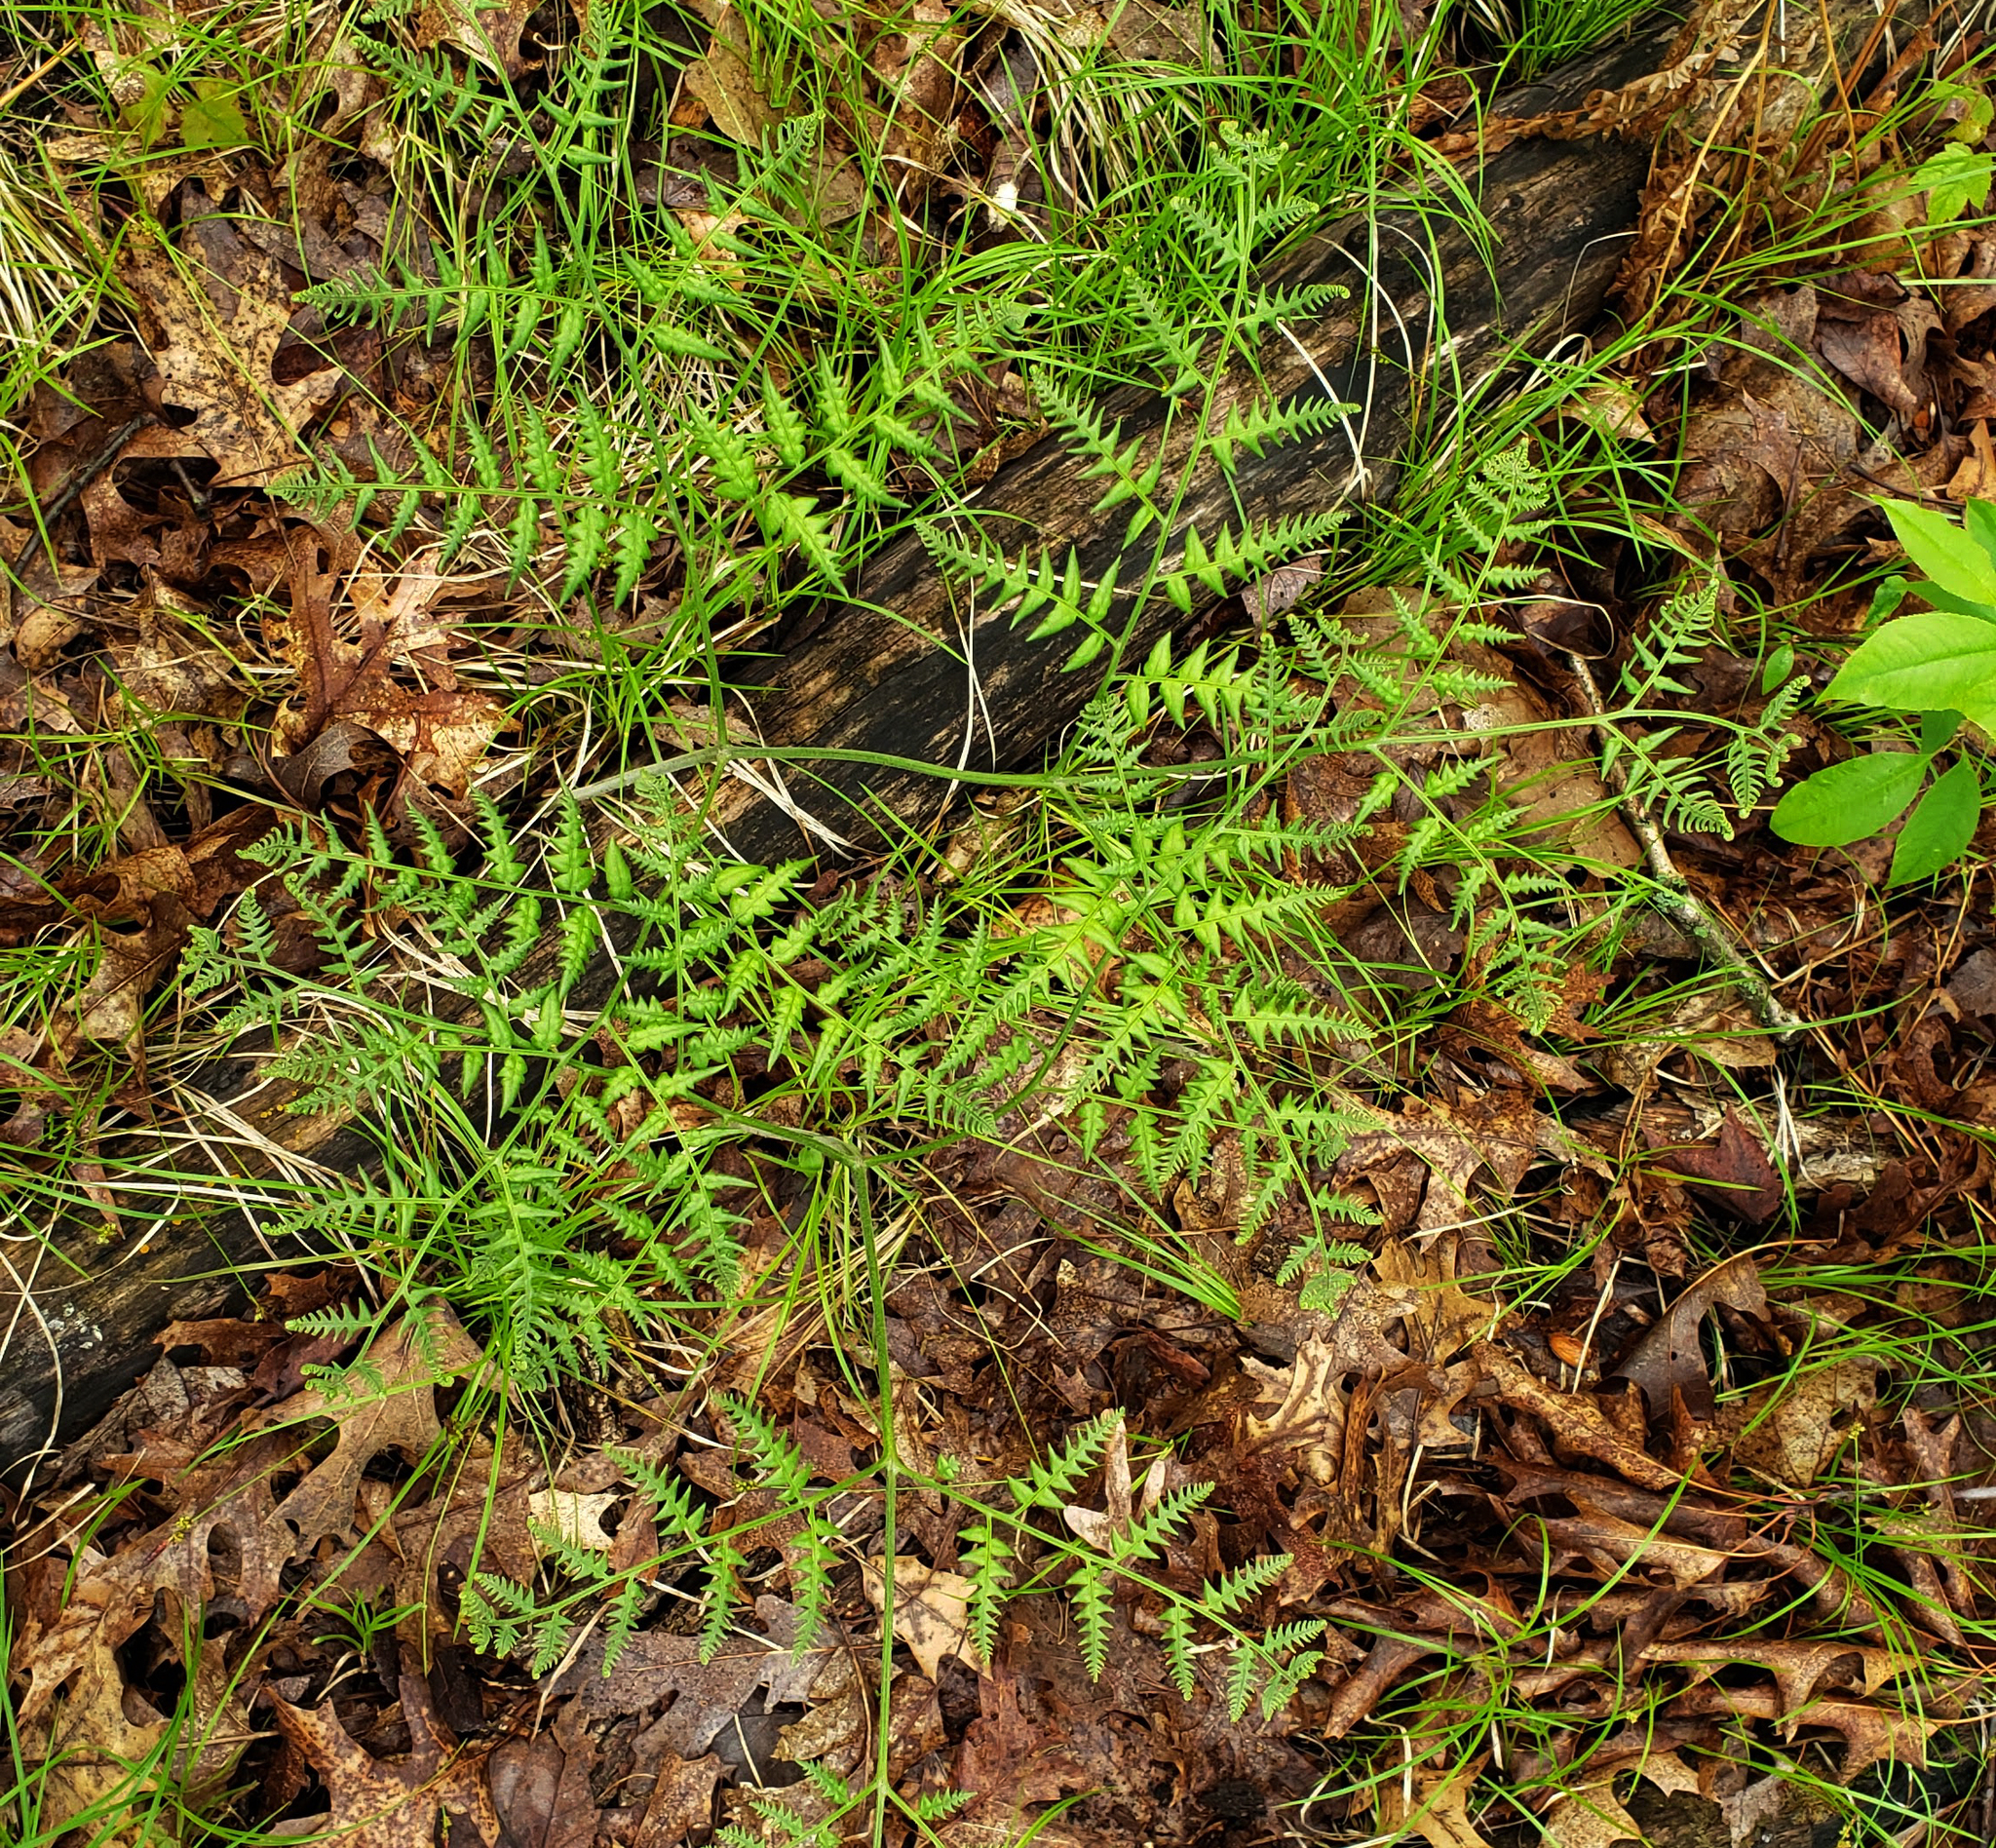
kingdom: Plantae
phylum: Tracheophyta
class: Polypodiopsida
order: Polypodiales
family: Dennstaedtiaceae
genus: Pteridium
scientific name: Pteridium aquilinum
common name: Bracken
